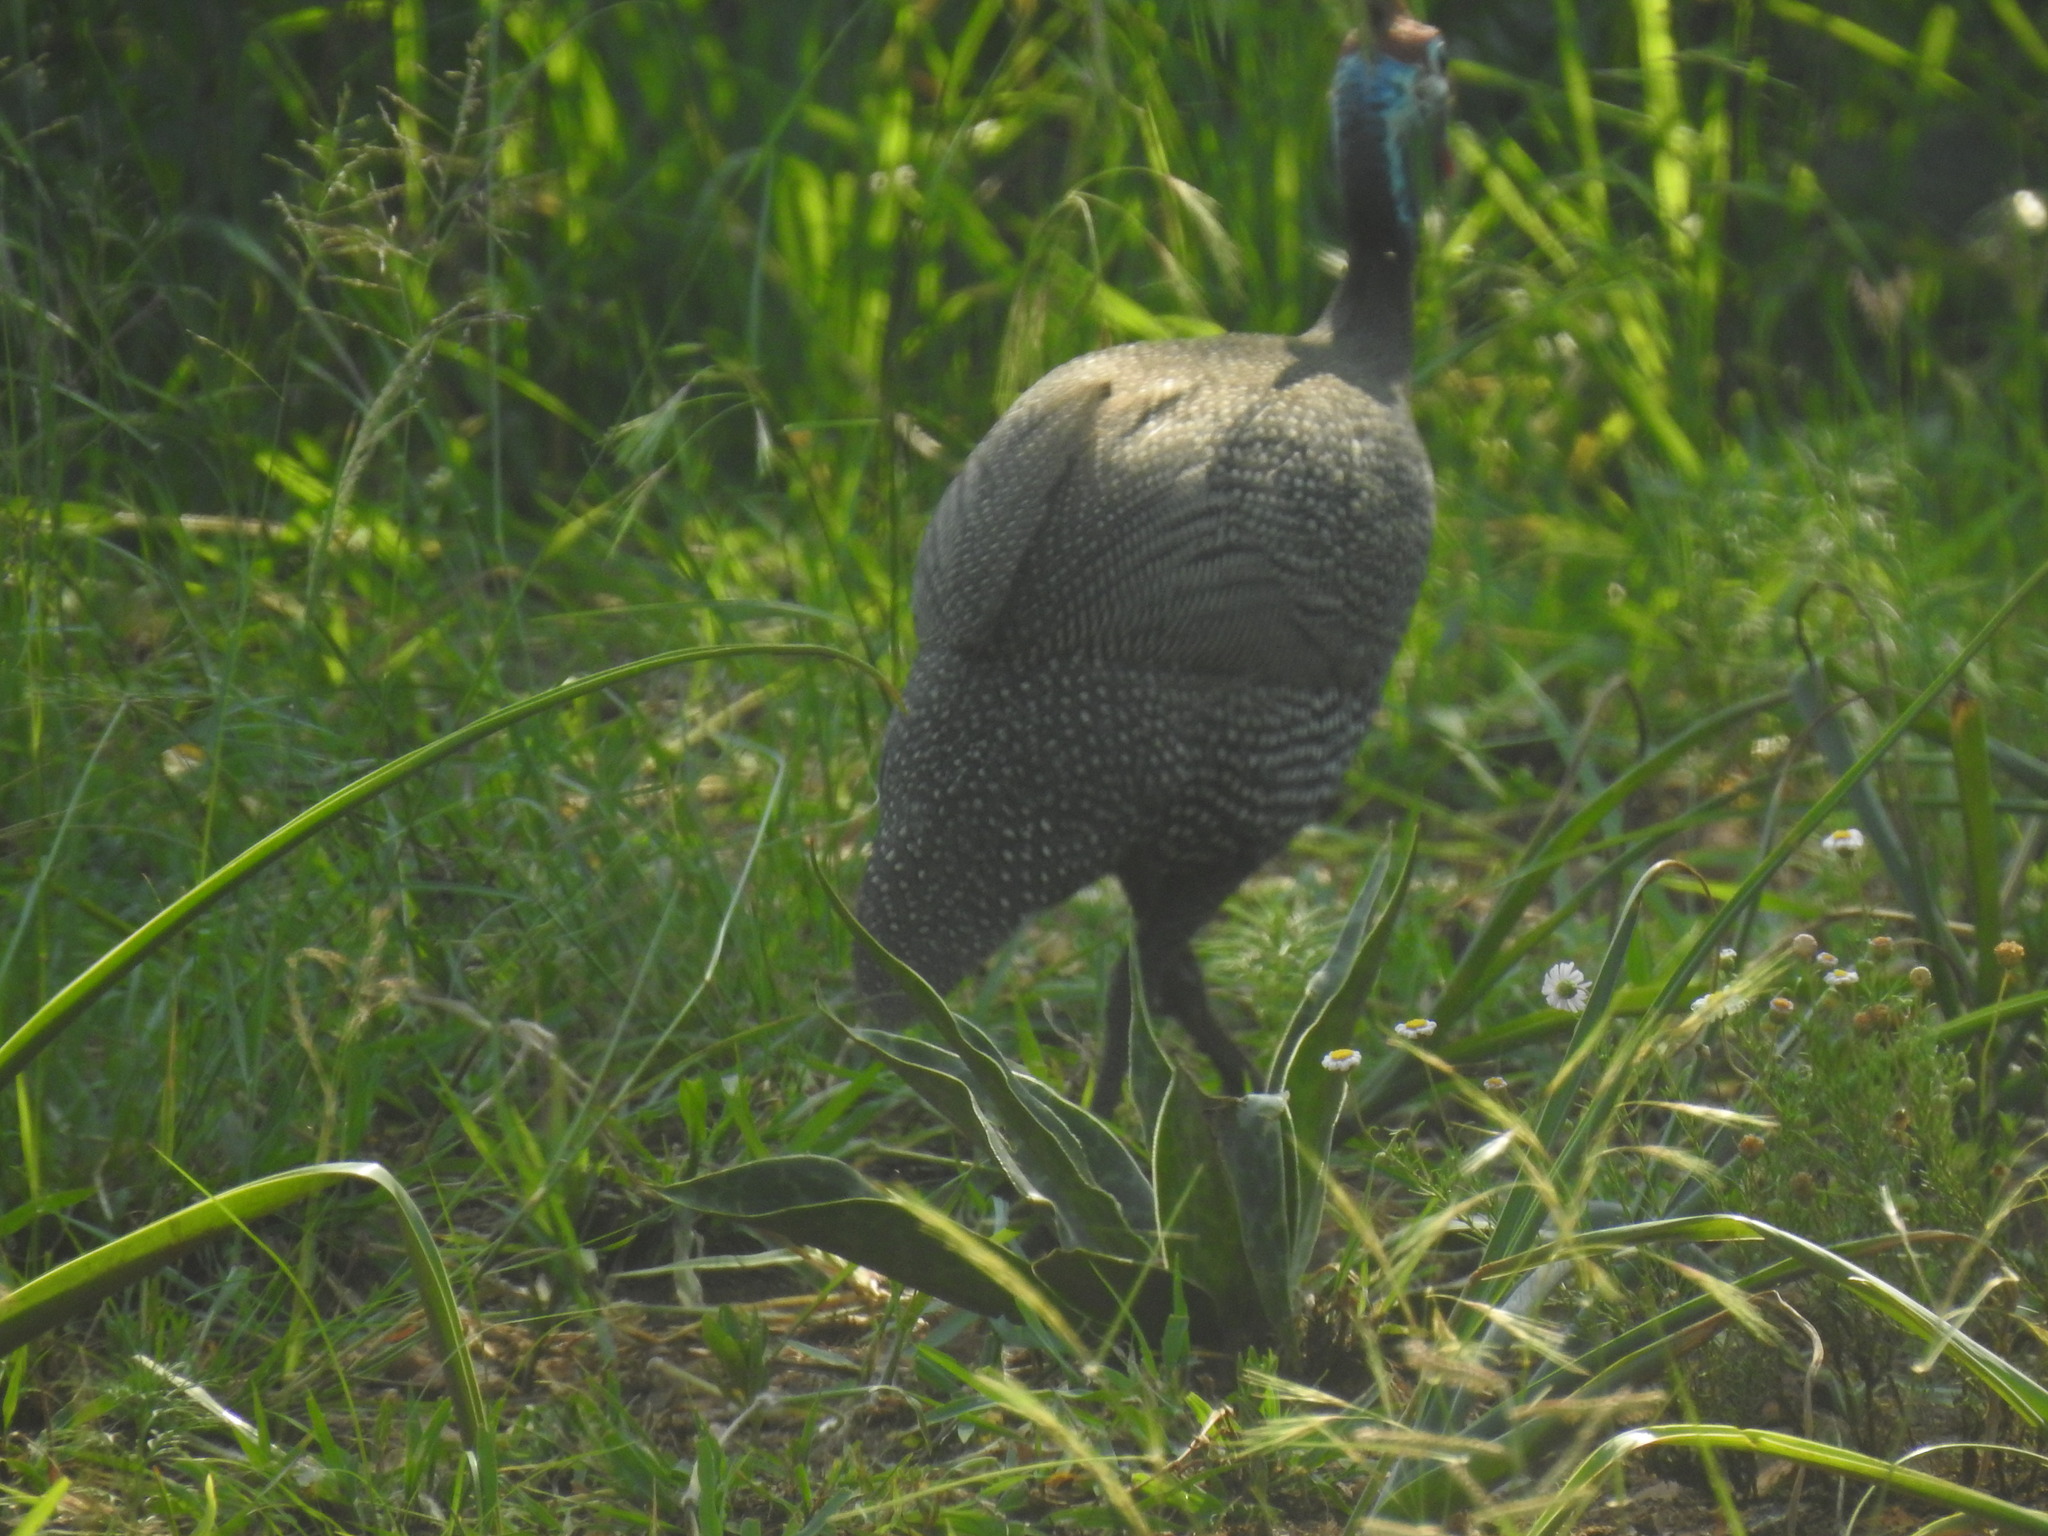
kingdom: Animalia
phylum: Chordata
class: Aves
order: Galliformes
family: Numididae
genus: Numida
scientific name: Numida meleagris
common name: Helmeted guineafowl
